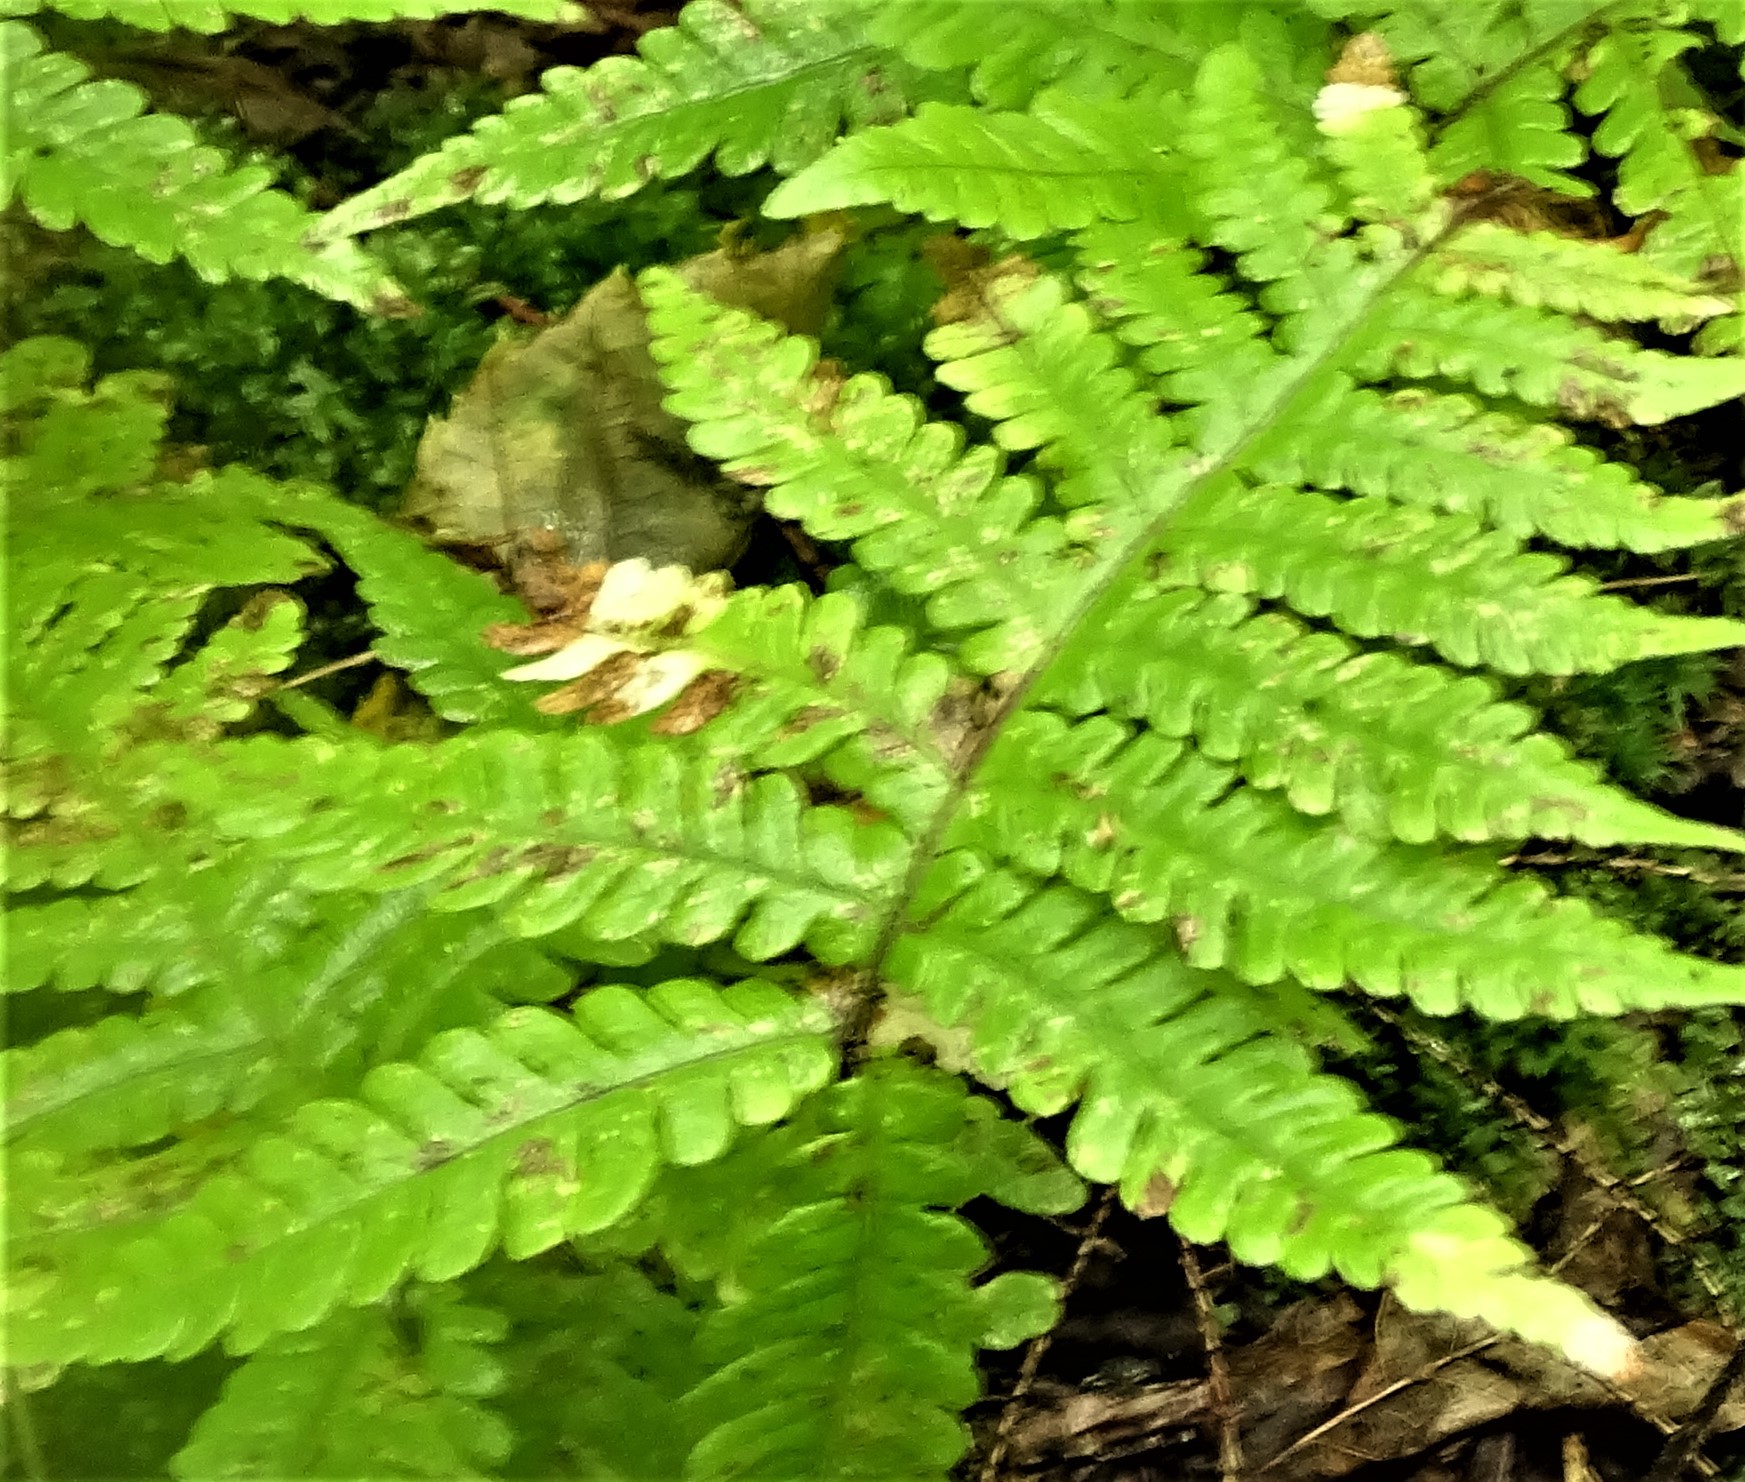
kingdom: Plantae
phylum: Tracheophyta
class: Polypodiopsida
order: Polypodiales
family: Thelypteridaceae
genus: Phegopteris
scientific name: Phegopteris connectilis
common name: Beech fern
